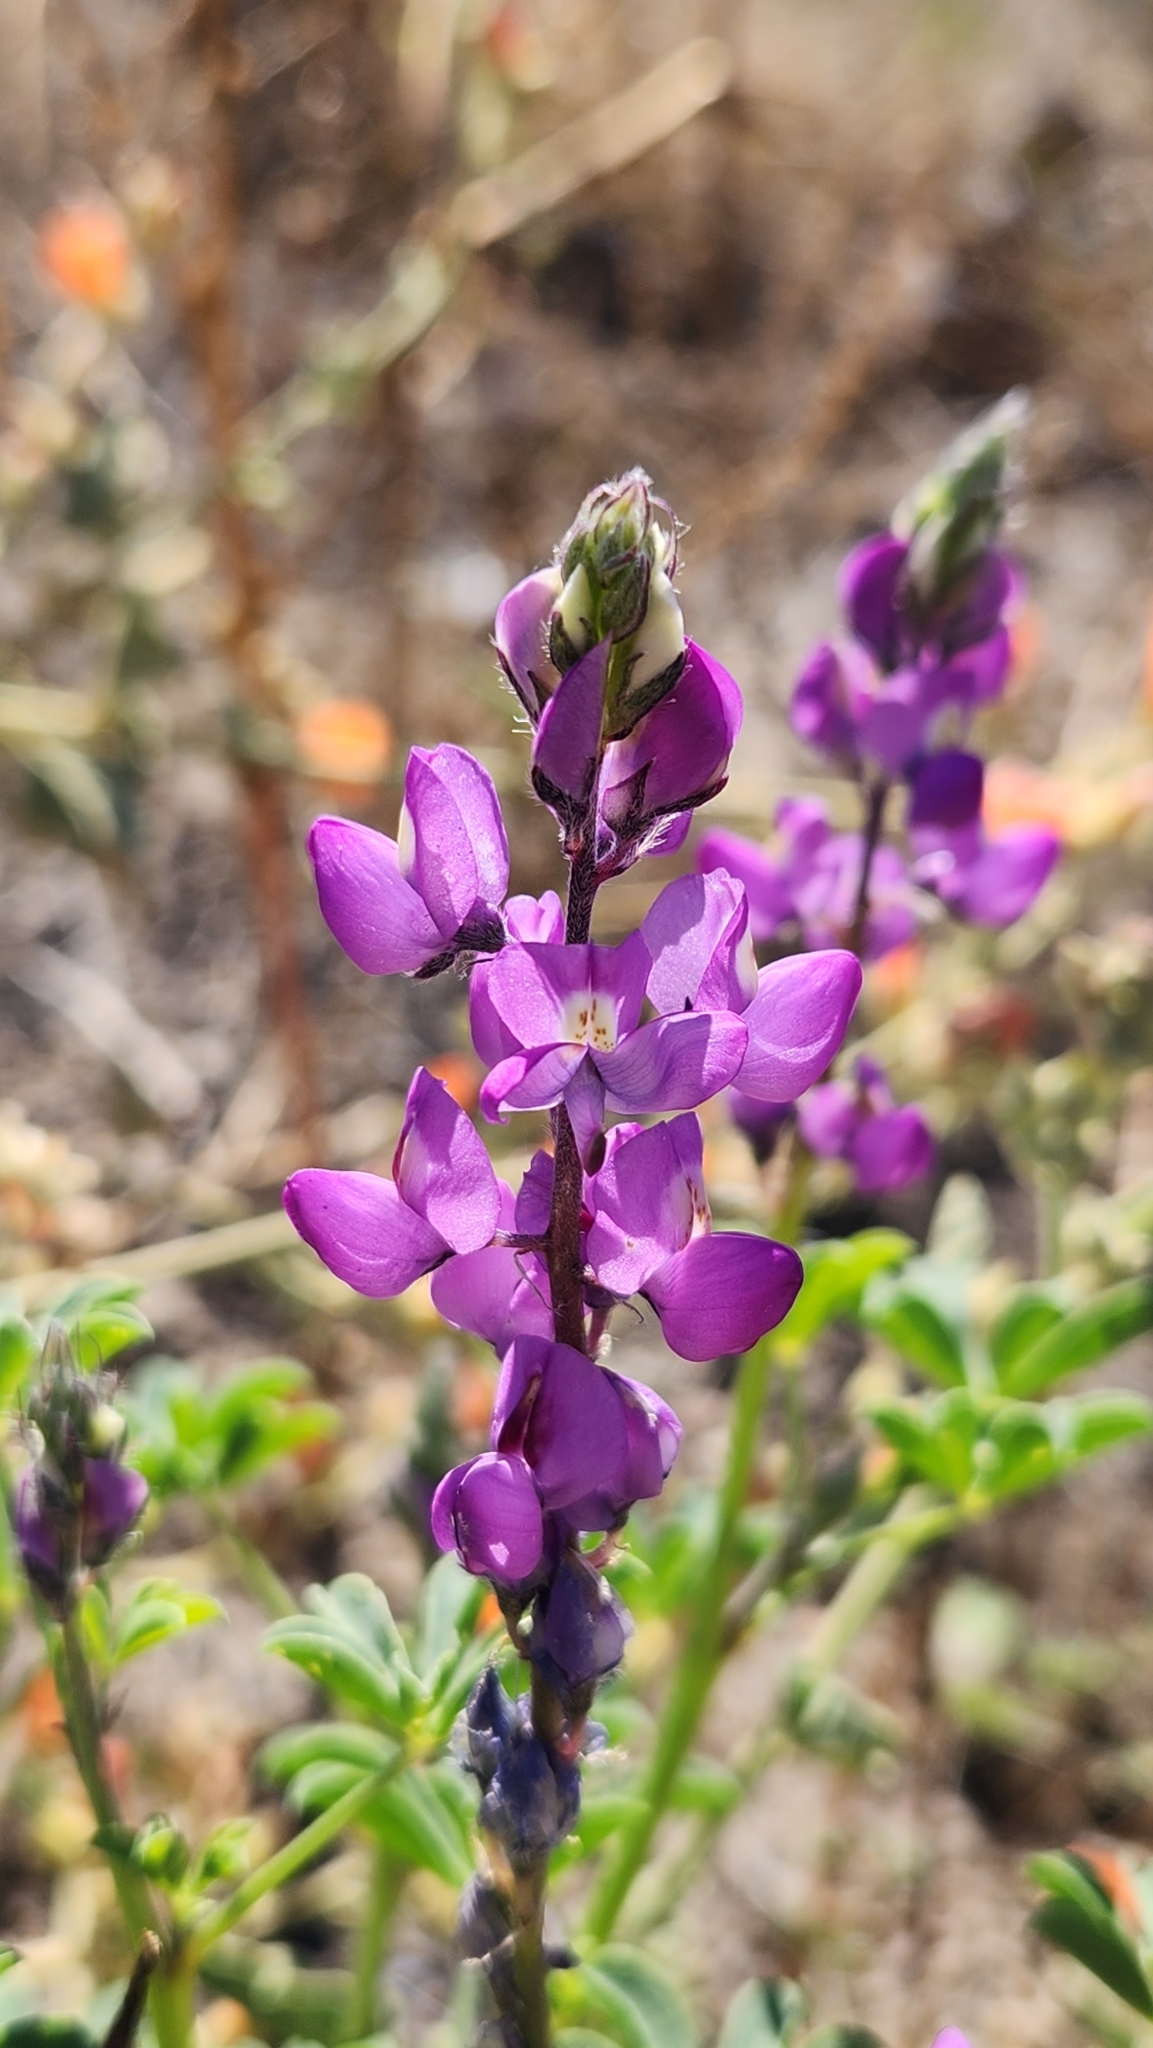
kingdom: Plantae
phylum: Tracheophyta
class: Magnoliopsida
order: Fabales
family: Fabaceae
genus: Lupinus
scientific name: Lupinus arizonicus
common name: Arizona lupine
